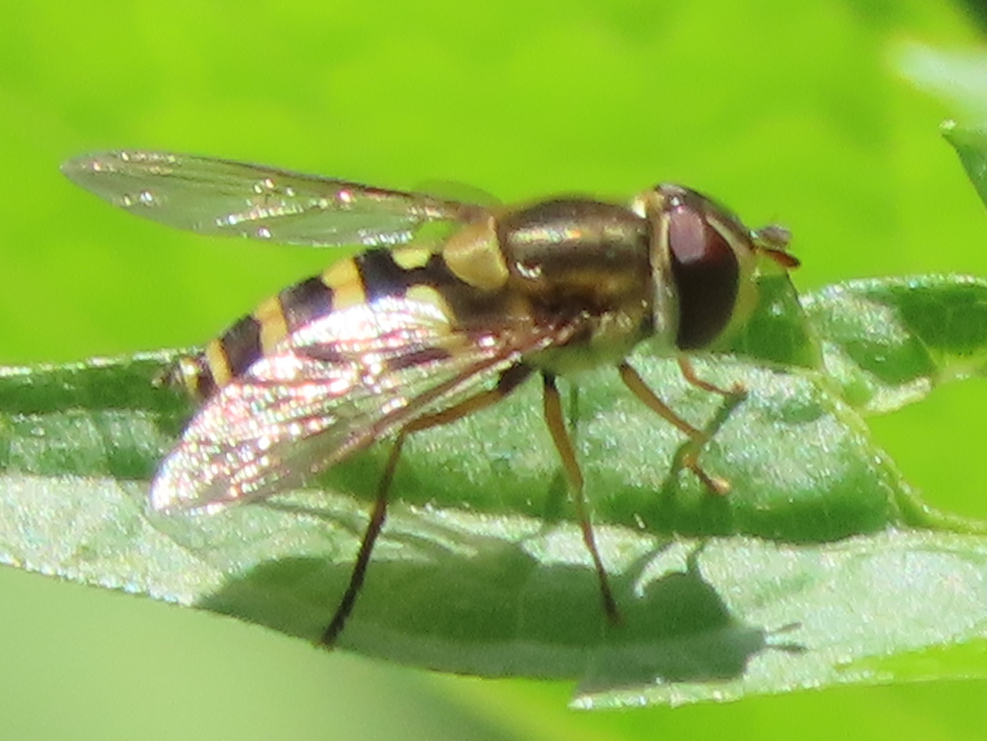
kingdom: Animalia
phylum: Arthropoda
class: Insecta
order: Diptera
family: Syrphidae
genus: Syrphus
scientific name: Syrphus
